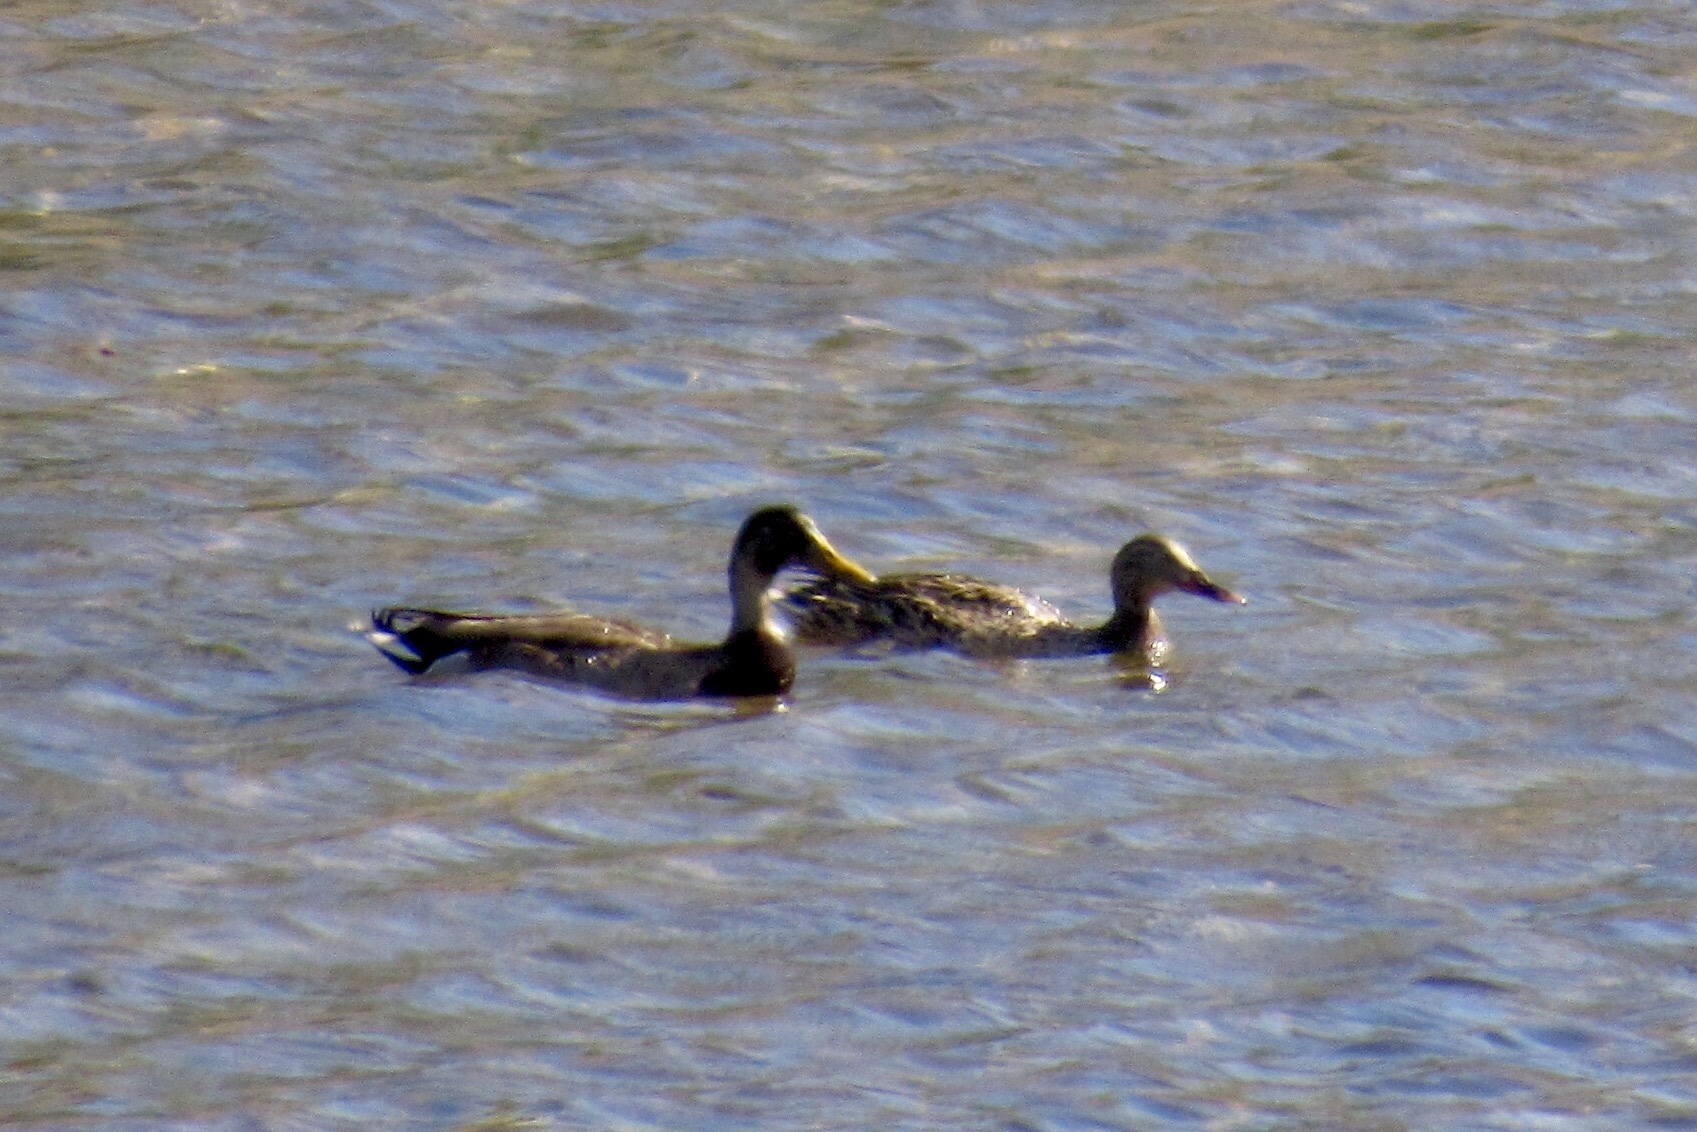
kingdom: Animalia
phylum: Chordata
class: Aves
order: Anseriformes
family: Anatidae
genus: Anas
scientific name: Anas platyrhynchos
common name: Mallard
